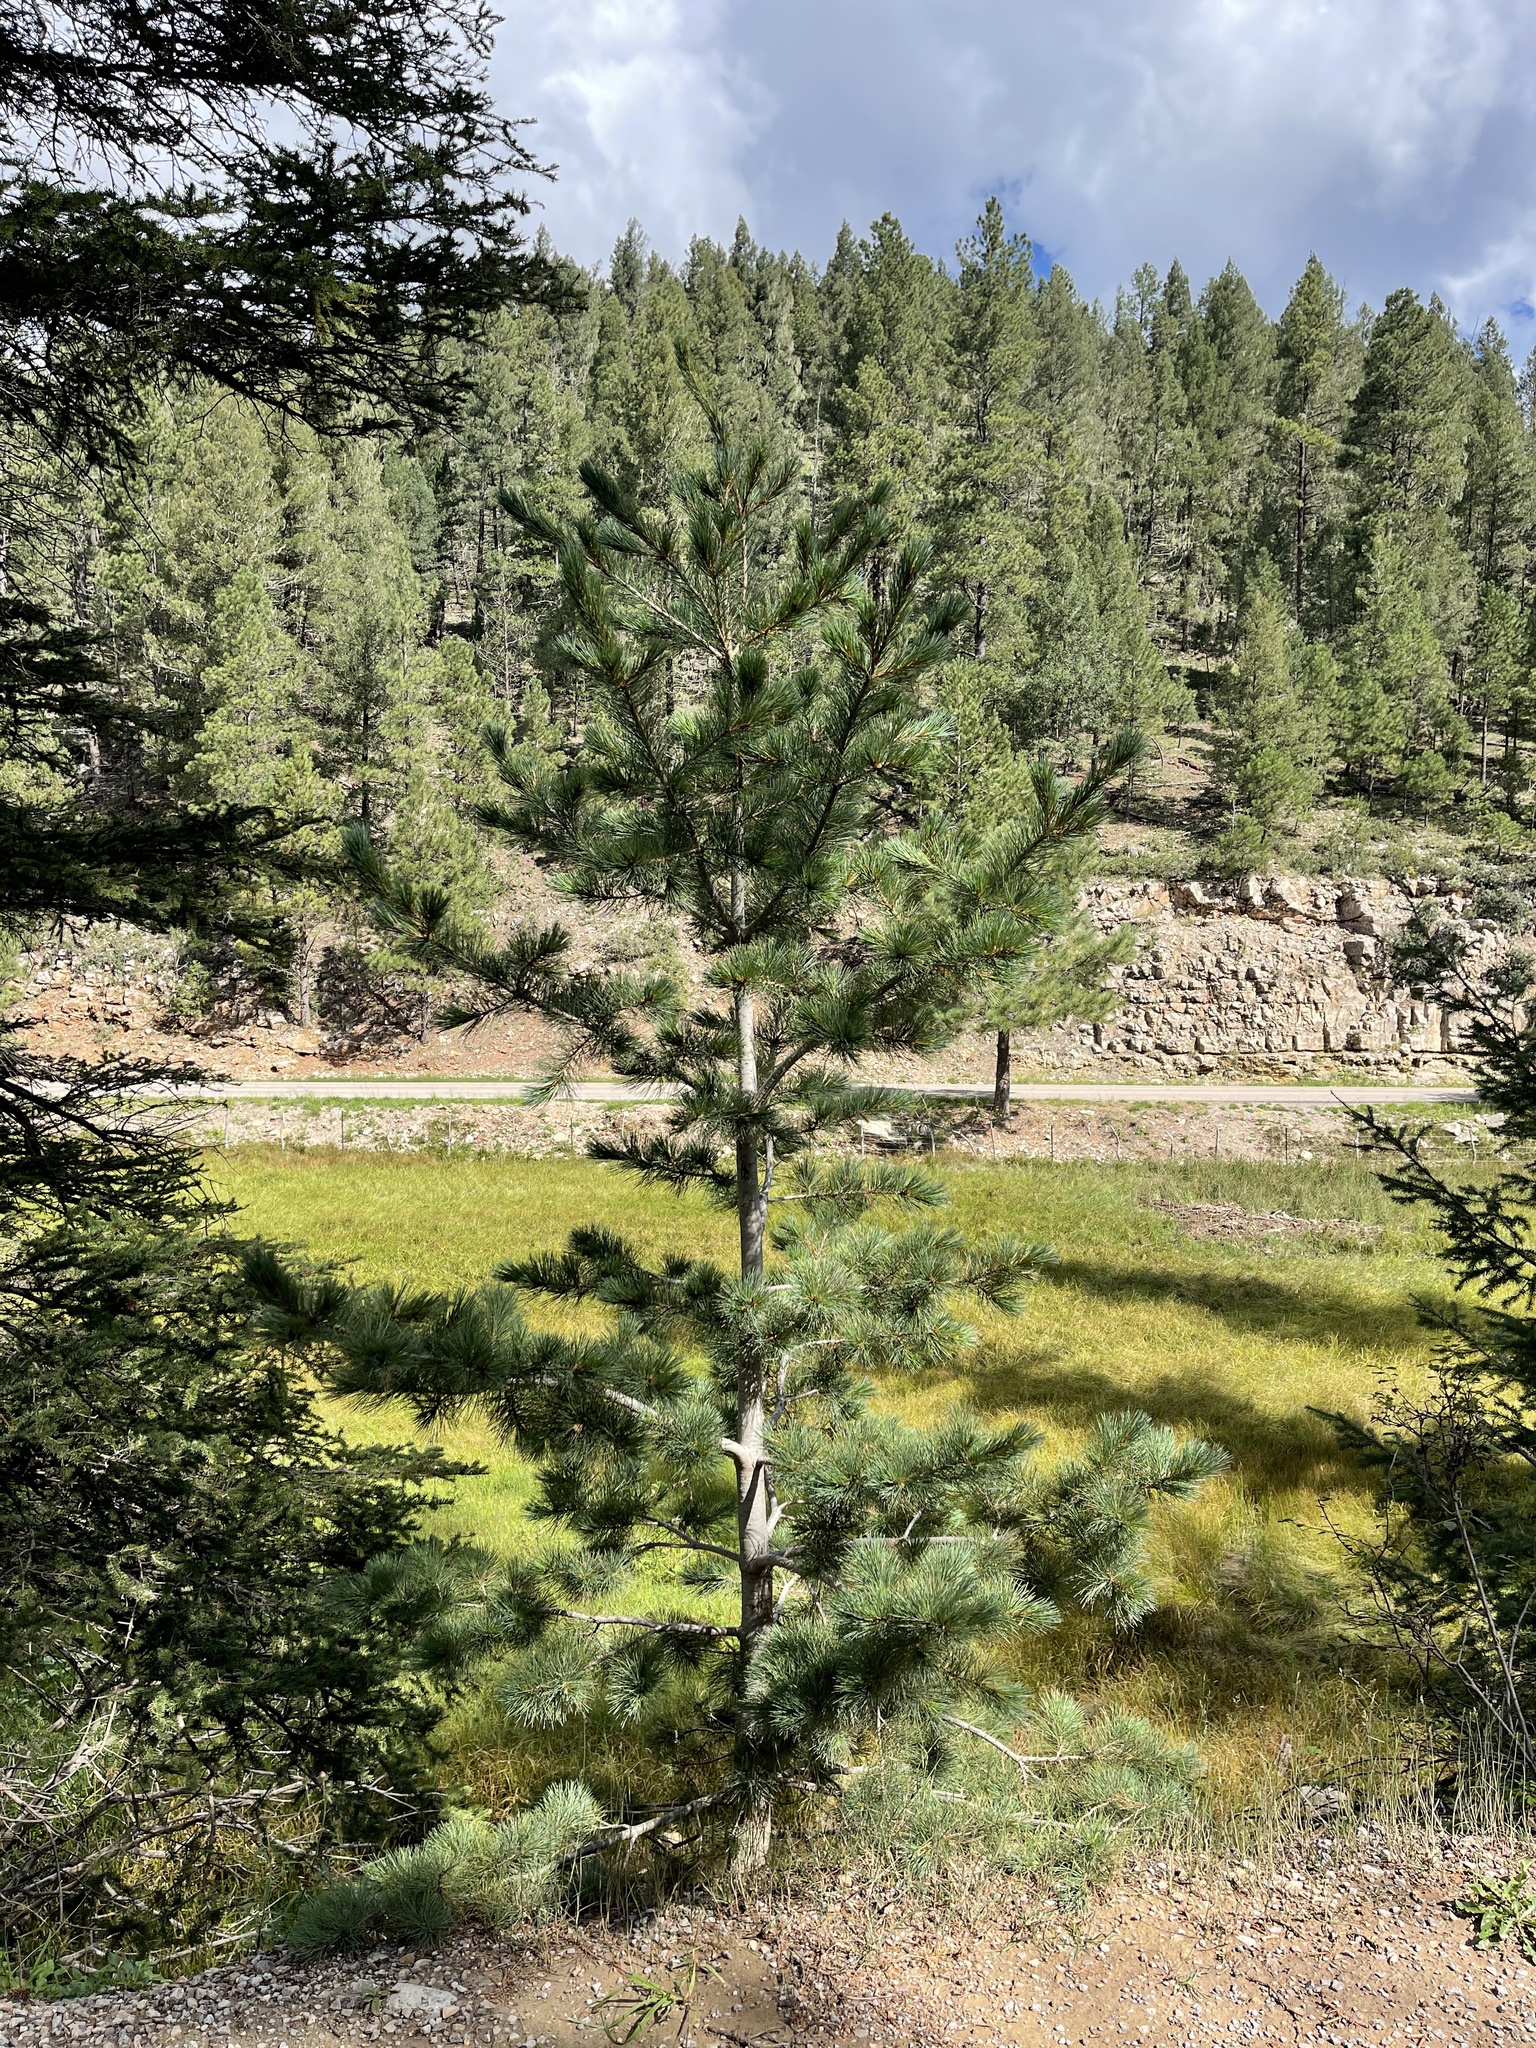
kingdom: Plantae
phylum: Tracheophyta
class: Pinopsida
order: Pinales
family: Pinaceae
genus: Pinus
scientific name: Pinus strobiformis
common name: Southwestern white pine
